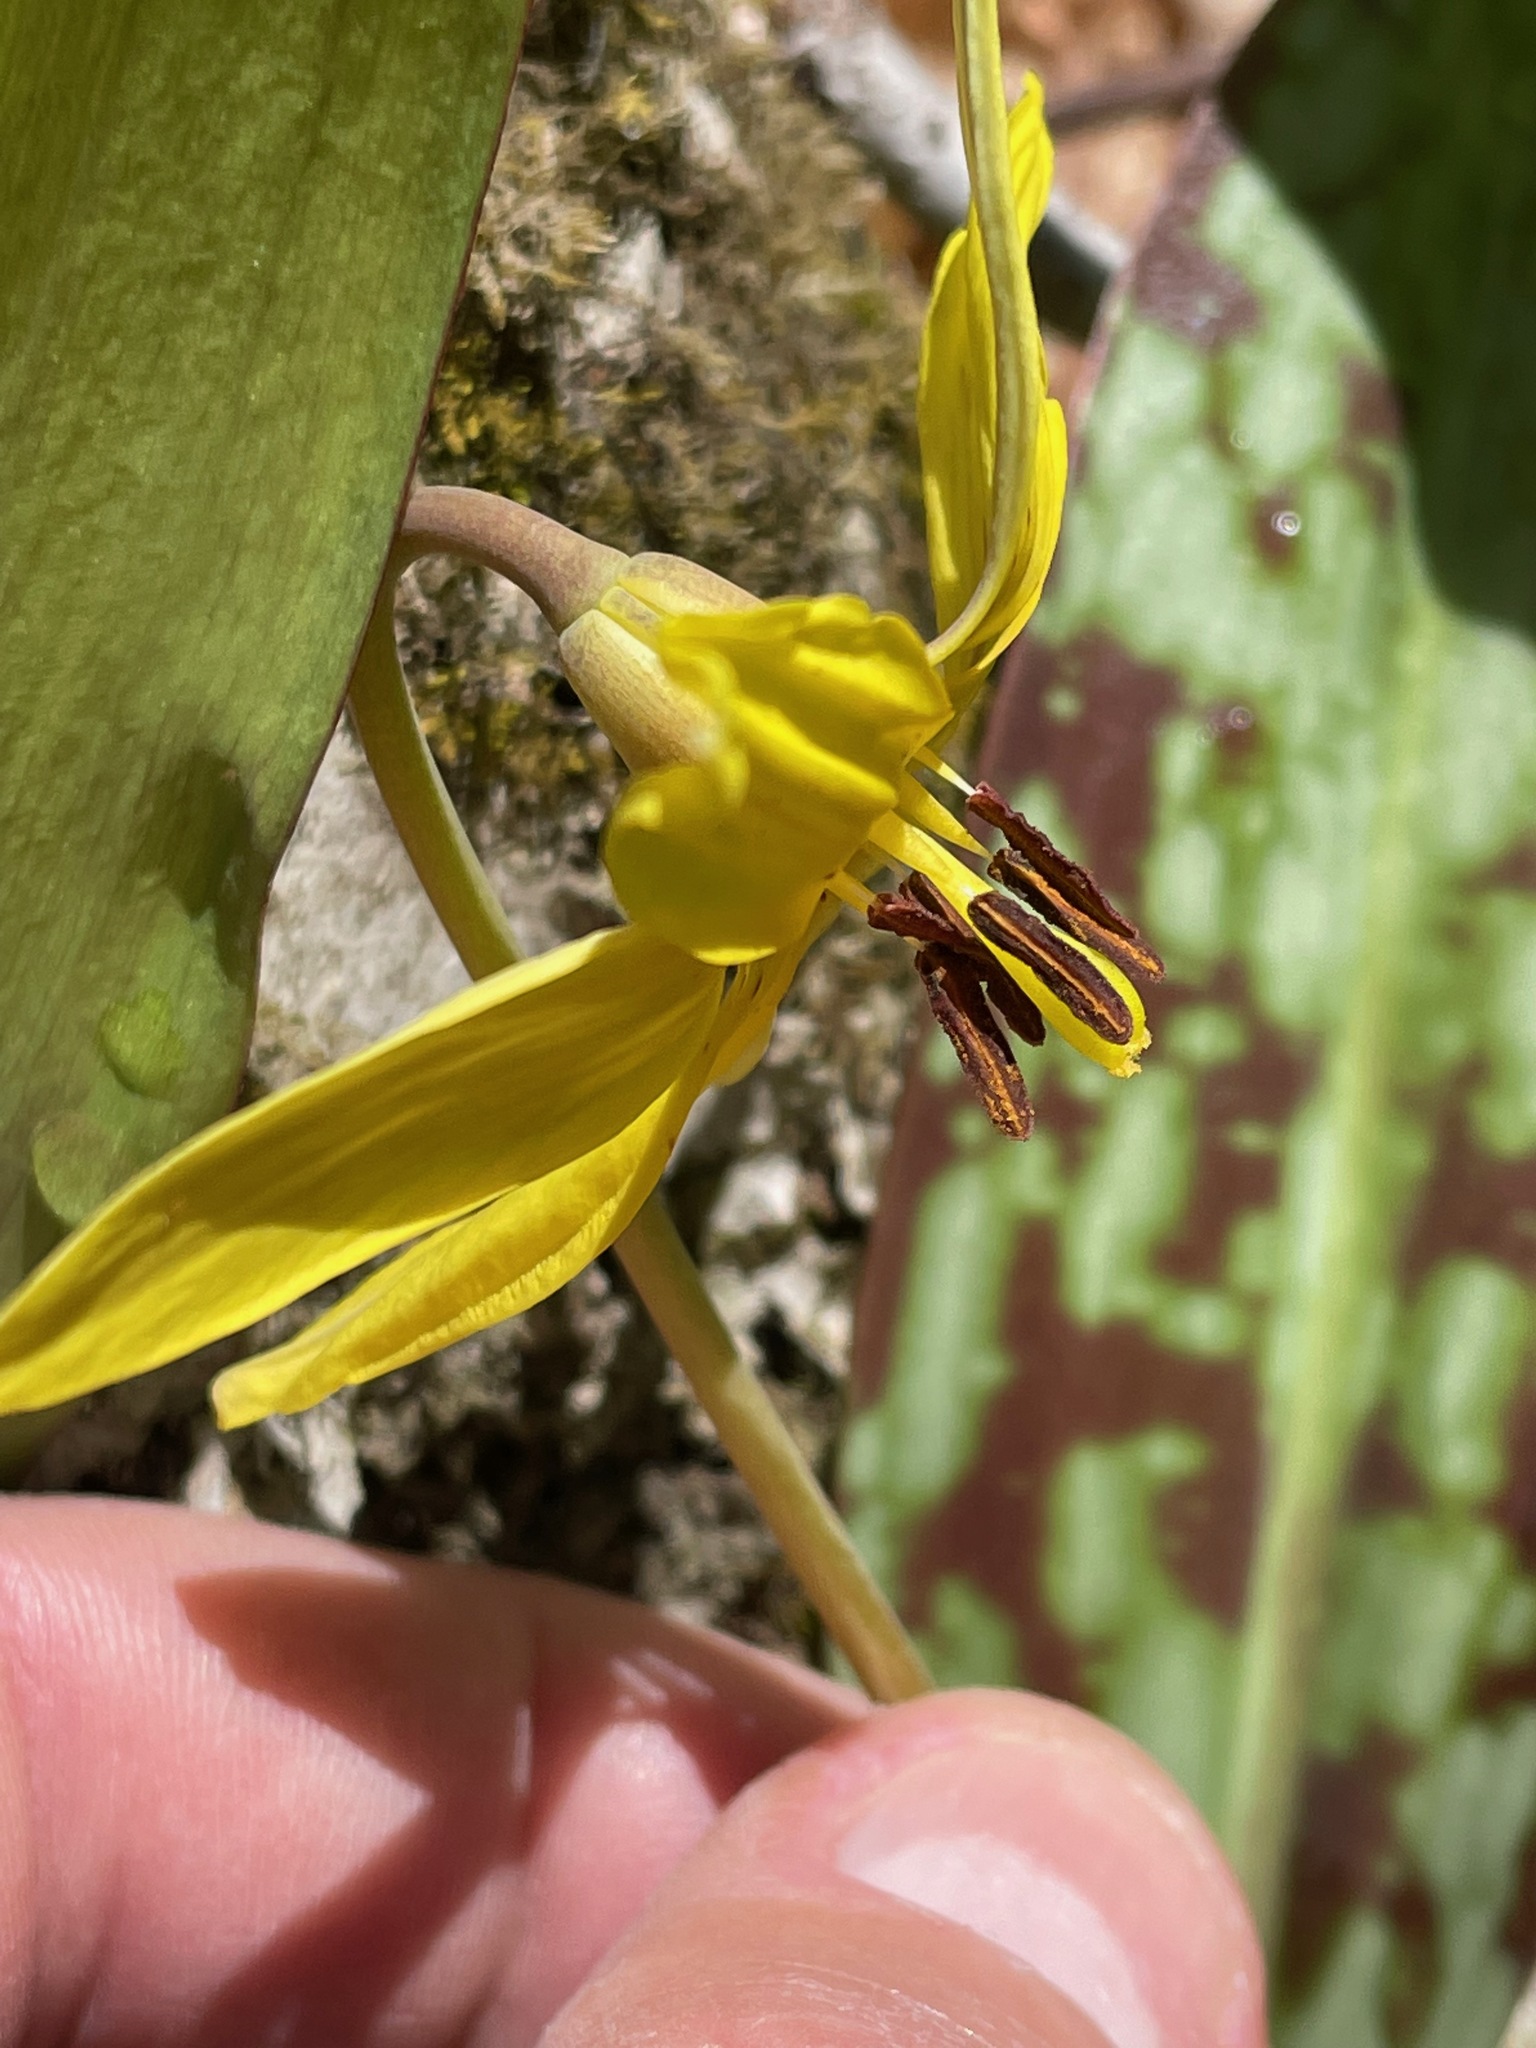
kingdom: Plantae
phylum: Tracheophyta
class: Liliopsida
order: Liliales
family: Liliaceae
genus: Erythronium
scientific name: Erythronium americanum
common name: Yellow adder's-tongue
